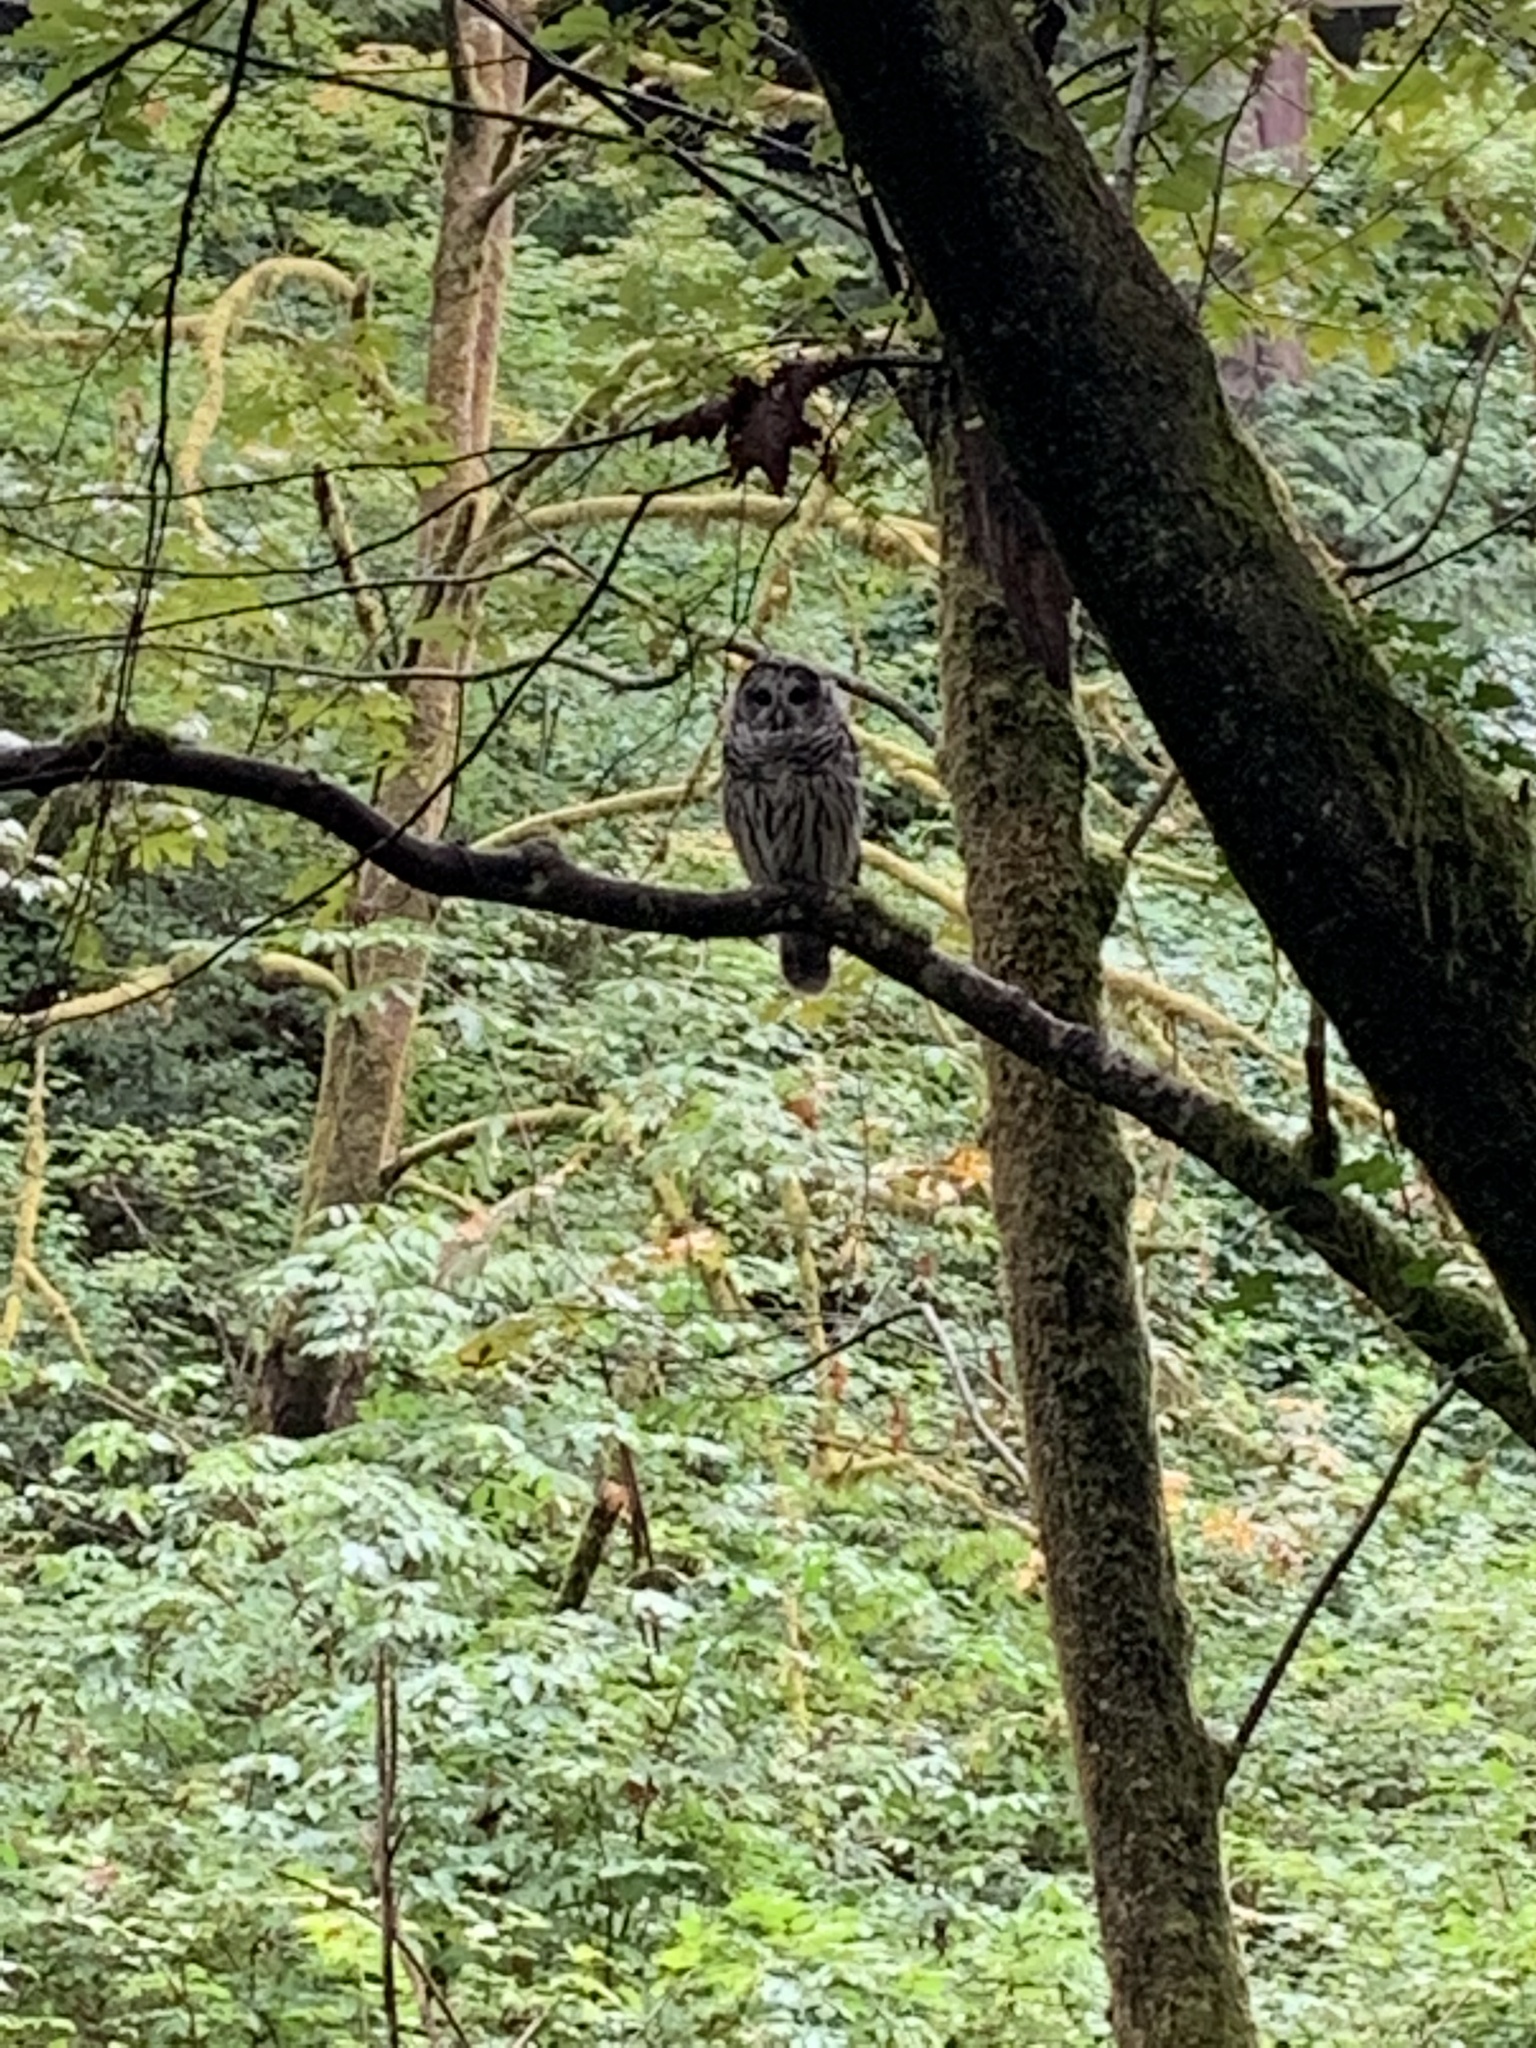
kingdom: Animalia
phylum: Chordata
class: Aves
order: Strigiformes
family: Strigidae
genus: Strix
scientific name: Strix varia
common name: Barred owl
